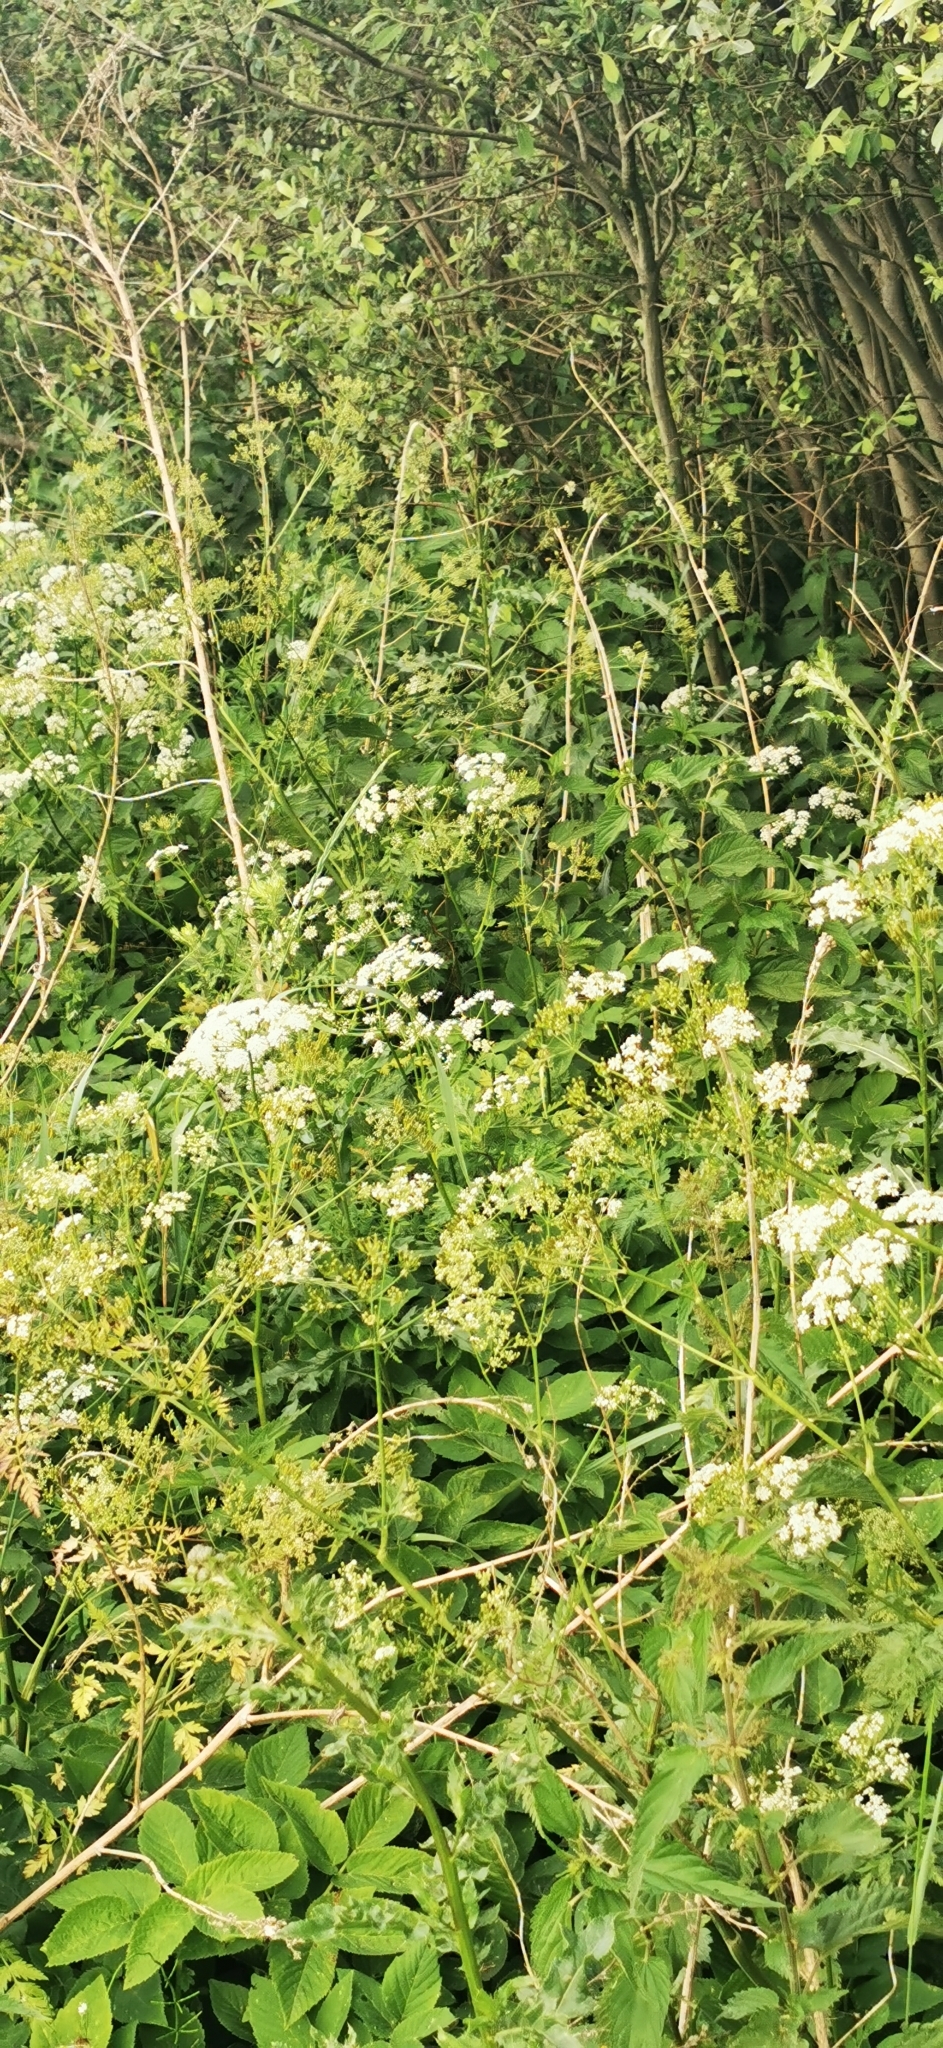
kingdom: Plantae
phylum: Tracheophyta
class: Magnoliopsida
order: Apiales
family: Apiaceae
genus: Aegopodium
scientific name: Aegopodium podagraria
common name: Ground-elder
